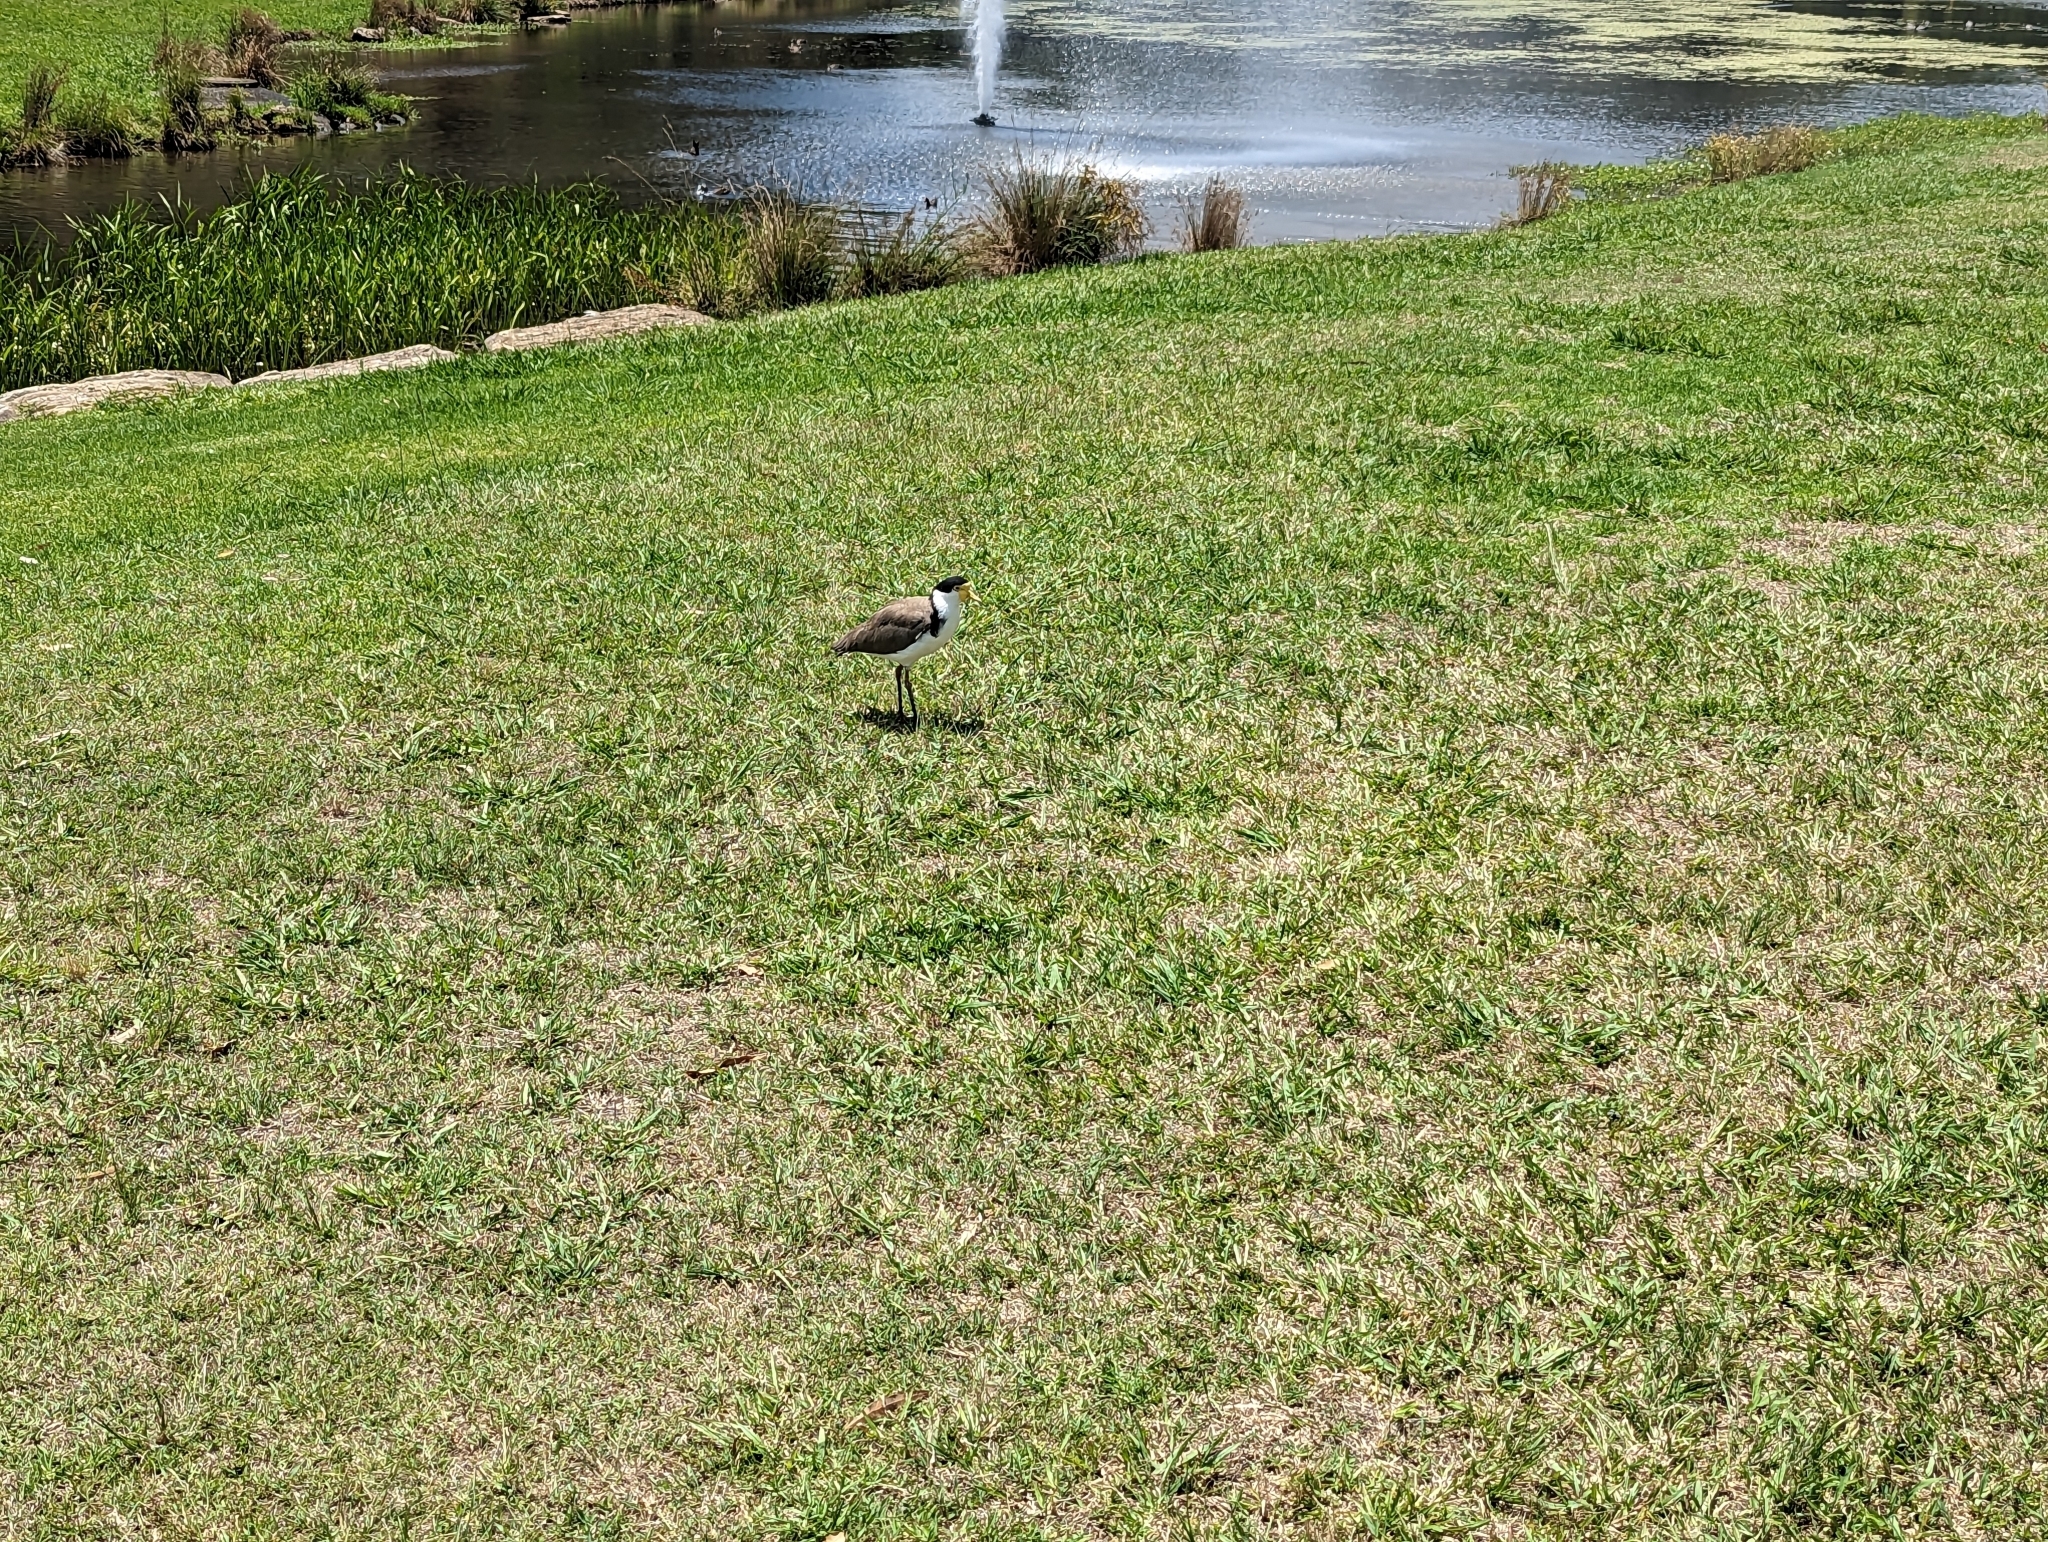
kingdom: Animalia
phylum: Chordata
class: Aves
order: Charadriiformes
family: Charadriidae
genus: Vanellus
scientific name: Vanellus miles
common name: Masked lapwing
